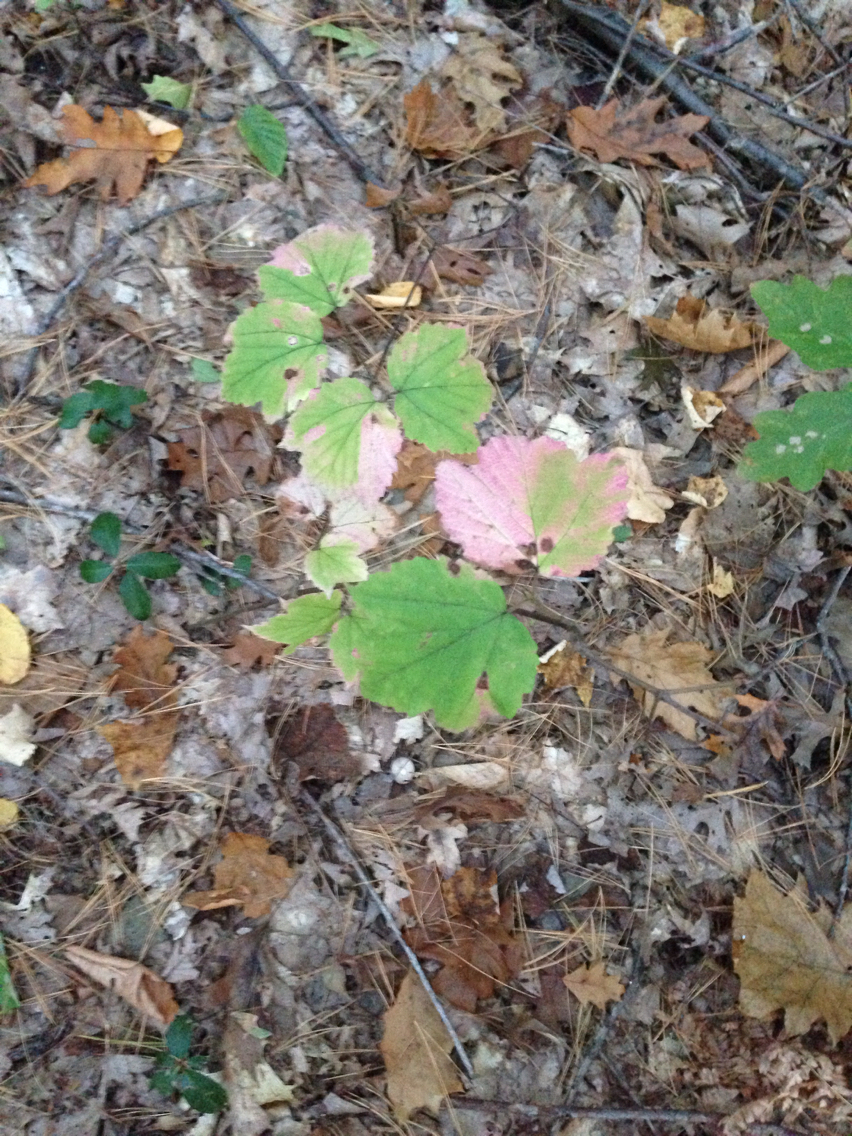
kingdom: Plantae
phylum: Tracheophyta
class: Magnoliopsida
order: Dipsacales
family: Viburnaceae
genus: Viburnum
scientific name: Viburnum acerifolium
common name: Dockmackie
